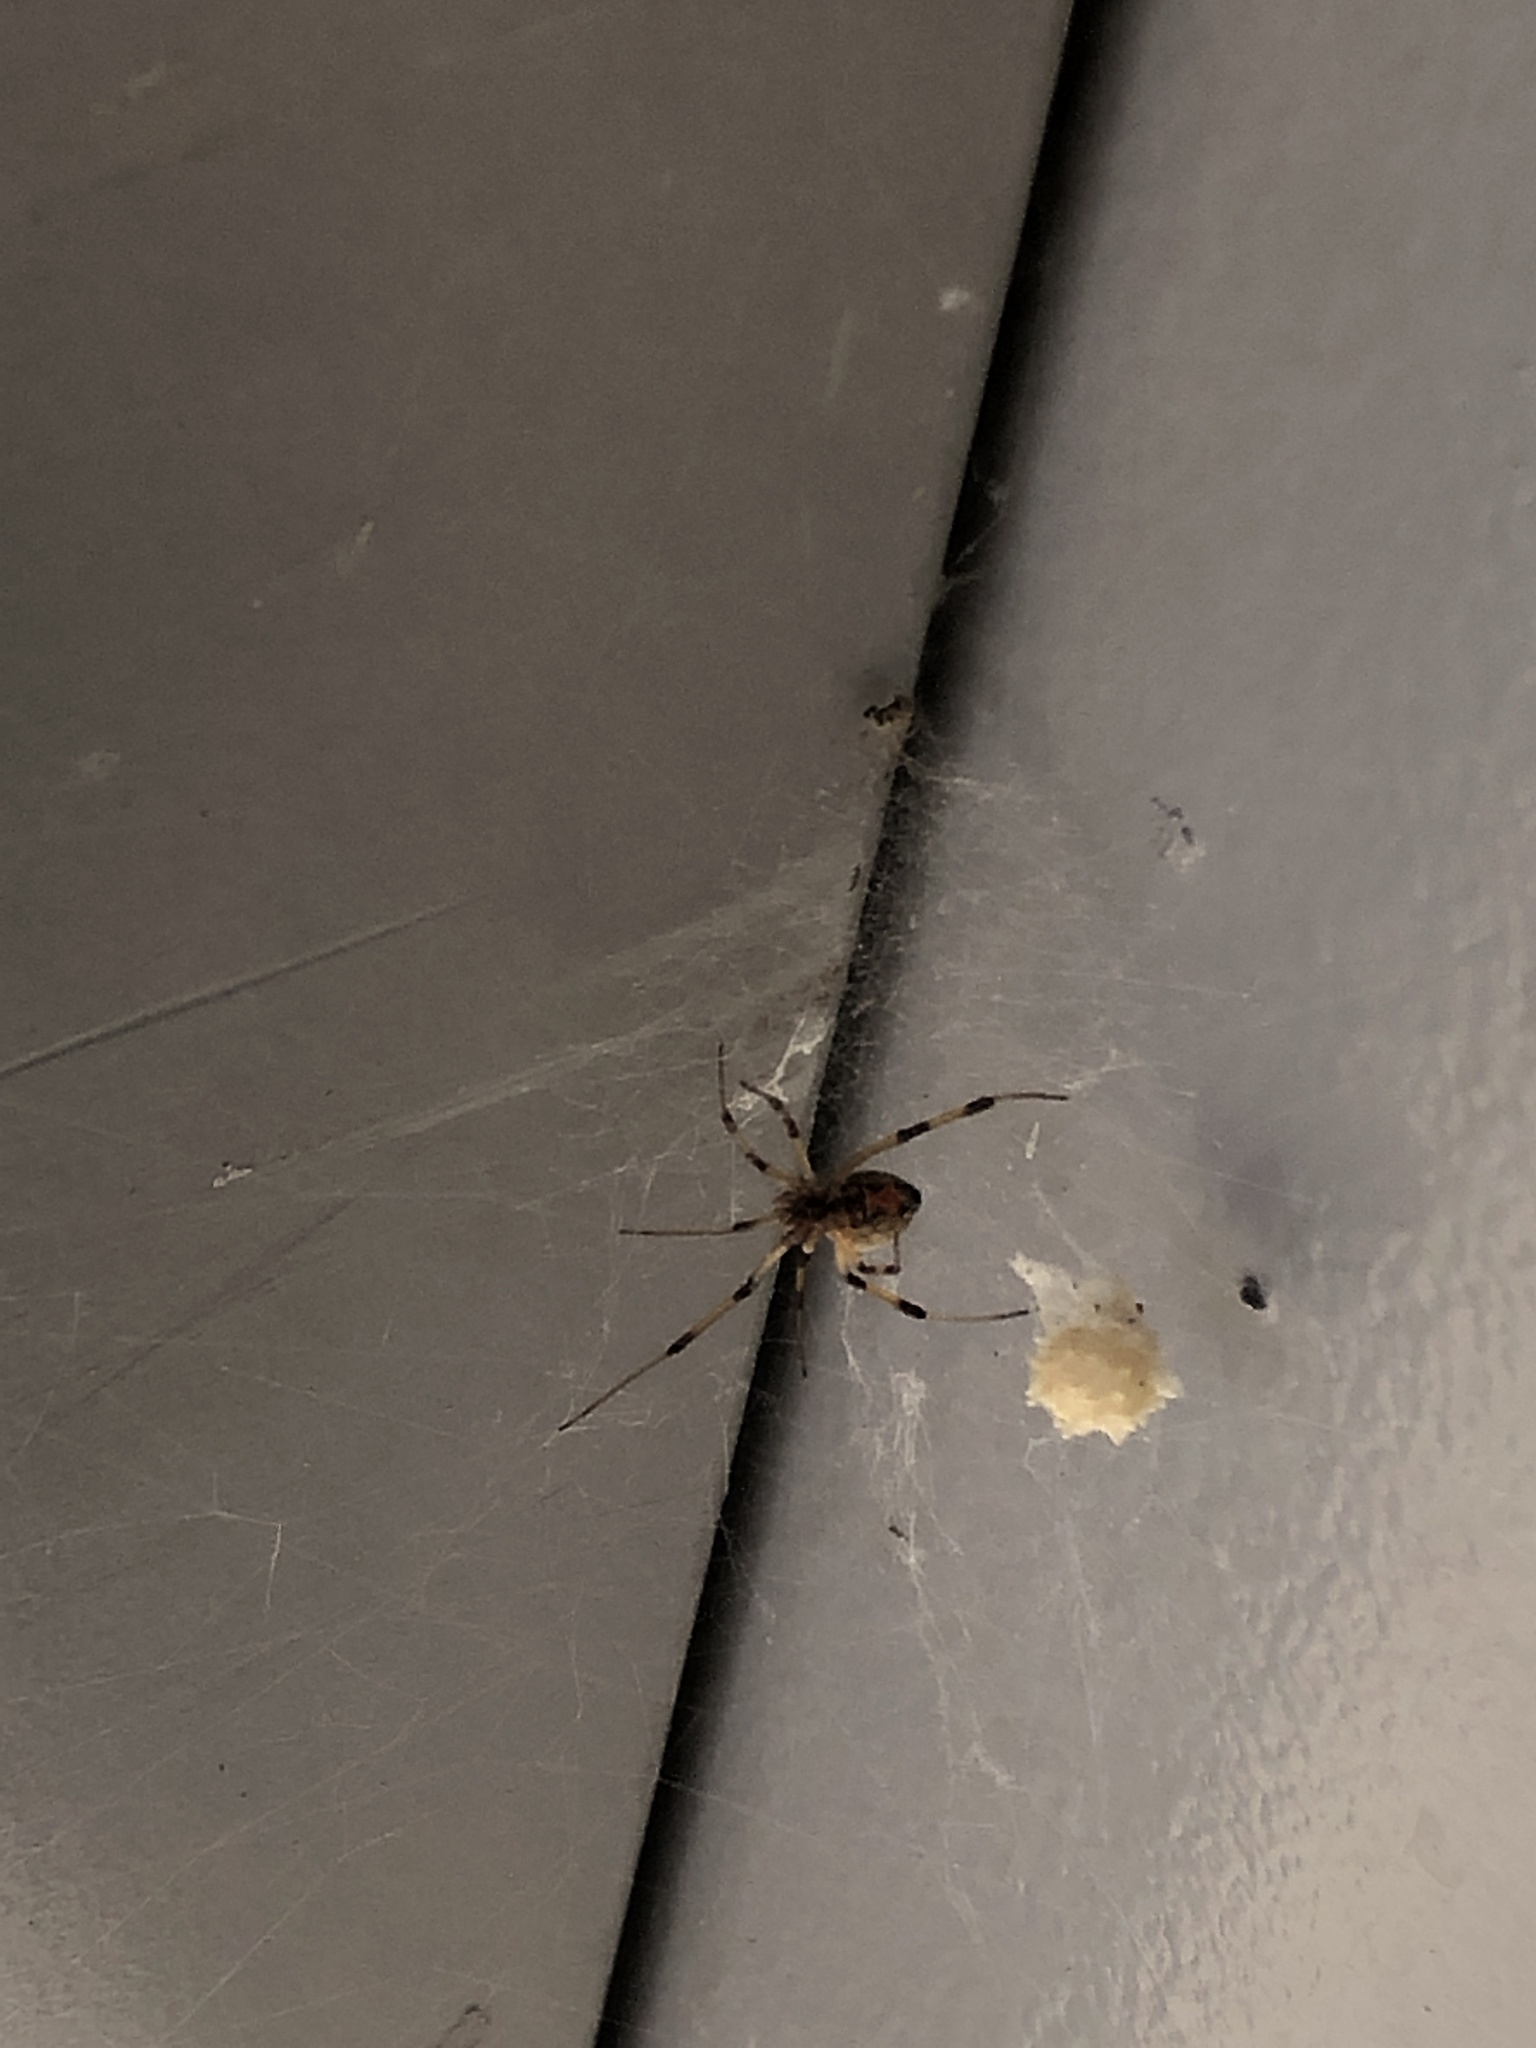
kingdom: Animalia
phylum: Arthropoda
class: Arachnida
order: Araneae
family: Theridiidae
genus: Latrodectus
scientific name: Latrodectus geometricus
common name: Brown widow spider
